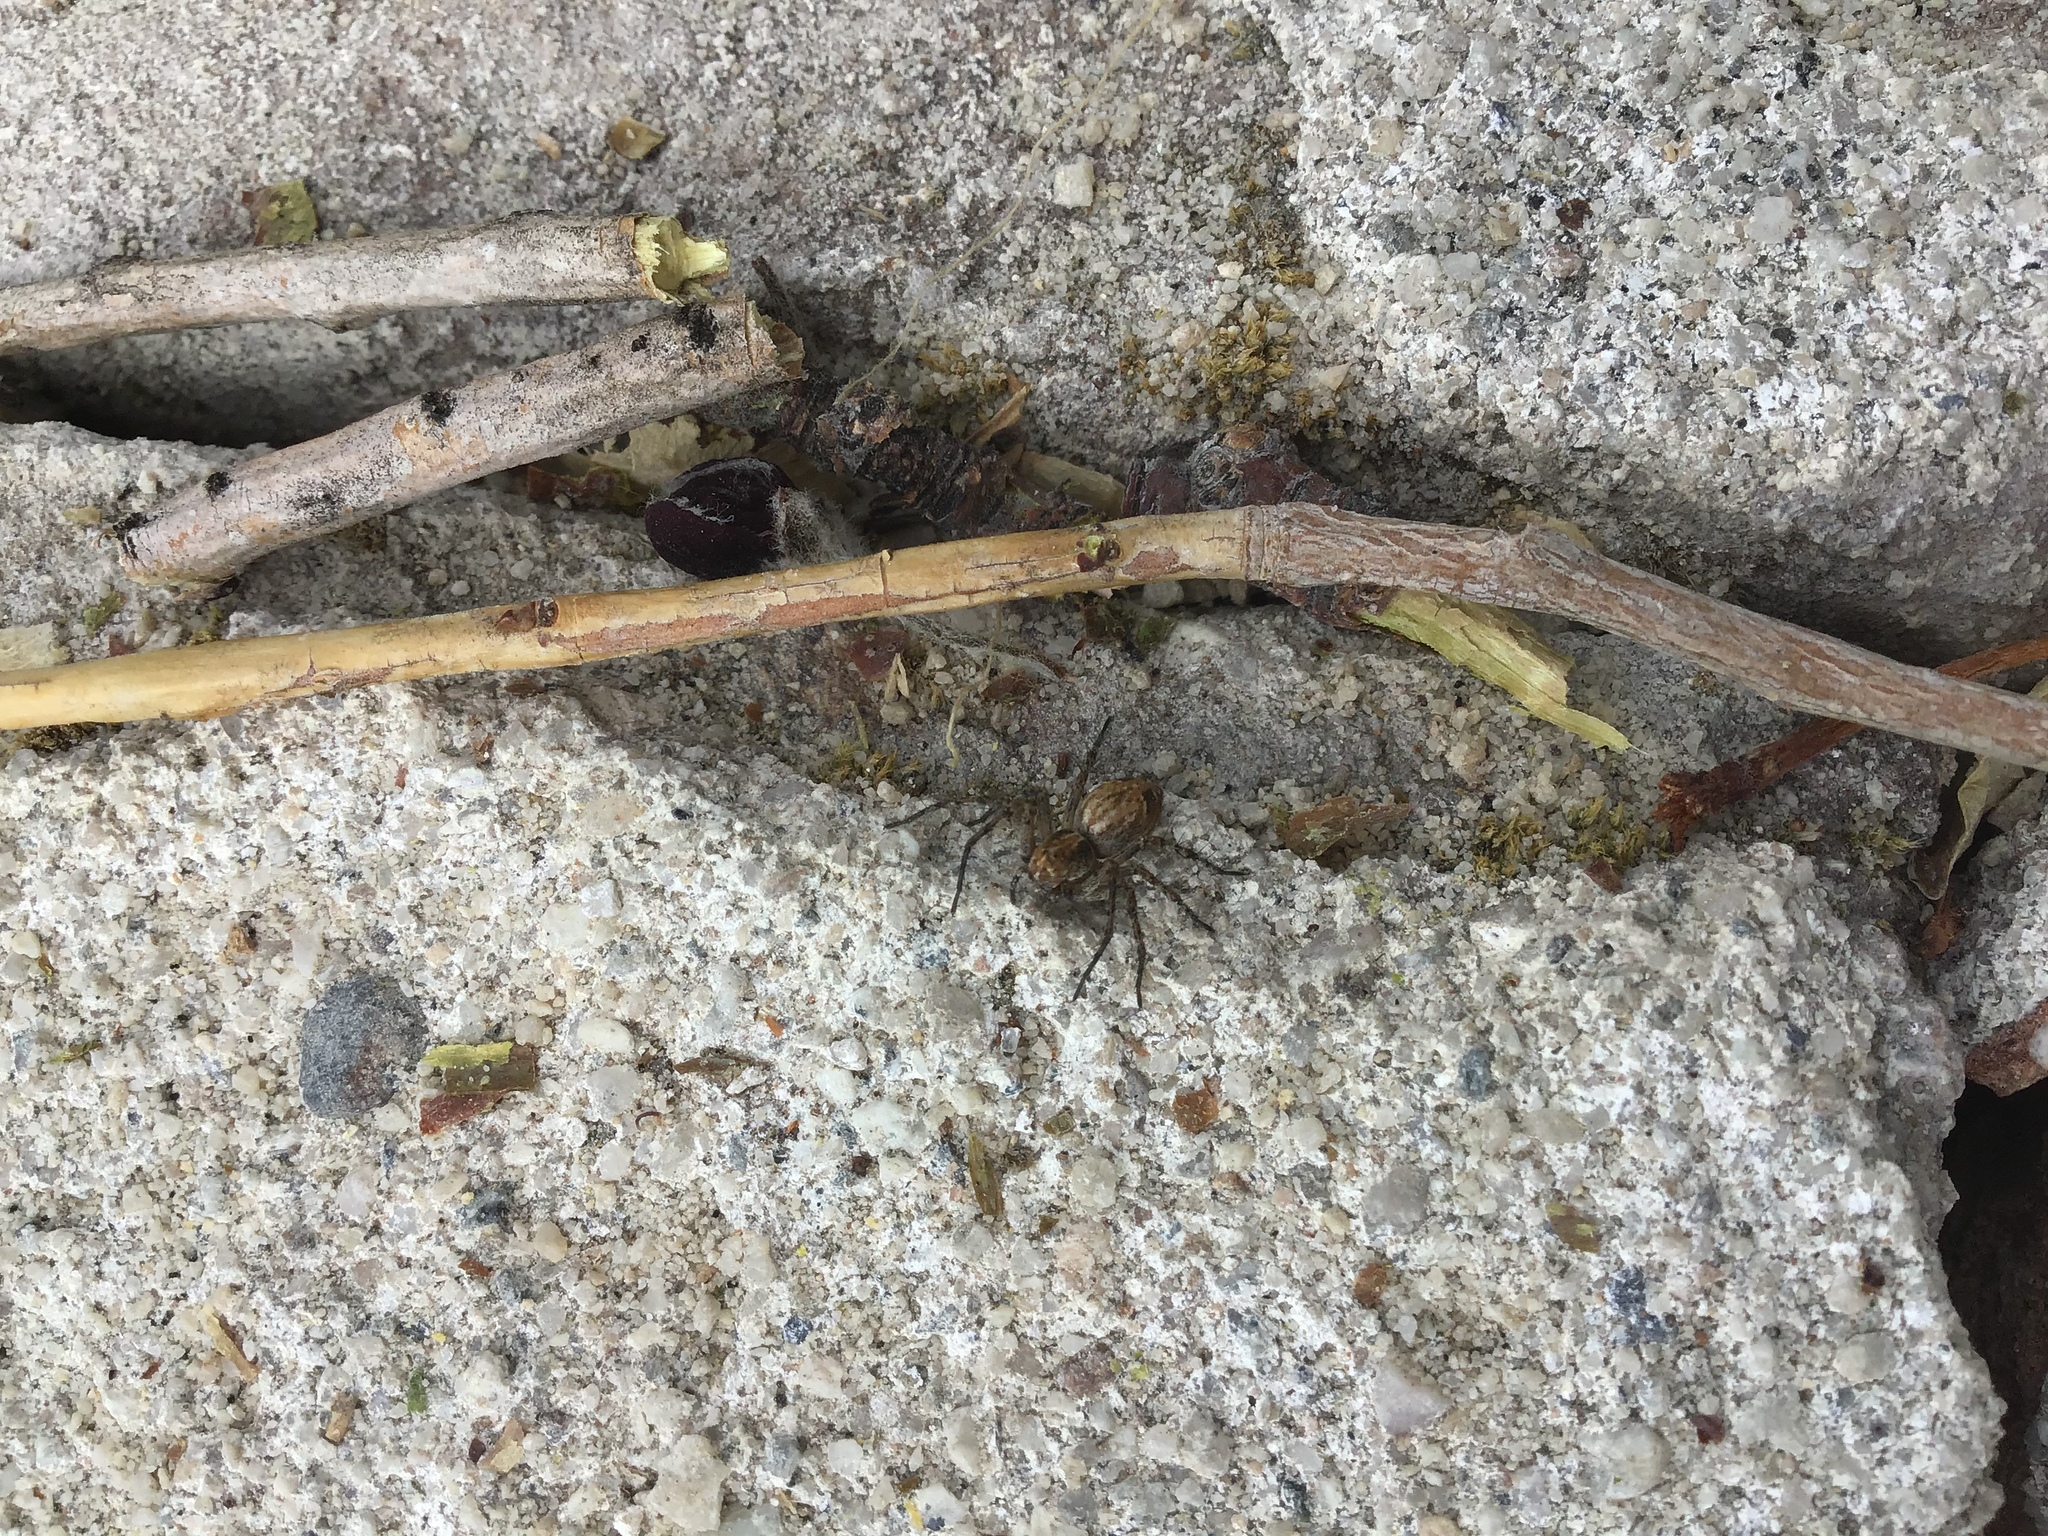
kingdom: Animalia
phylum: Arthropoda
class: Arachnida
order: Araneae
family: Oxyopidae
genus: Oxyopes
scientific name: Oxyopes scalaris
